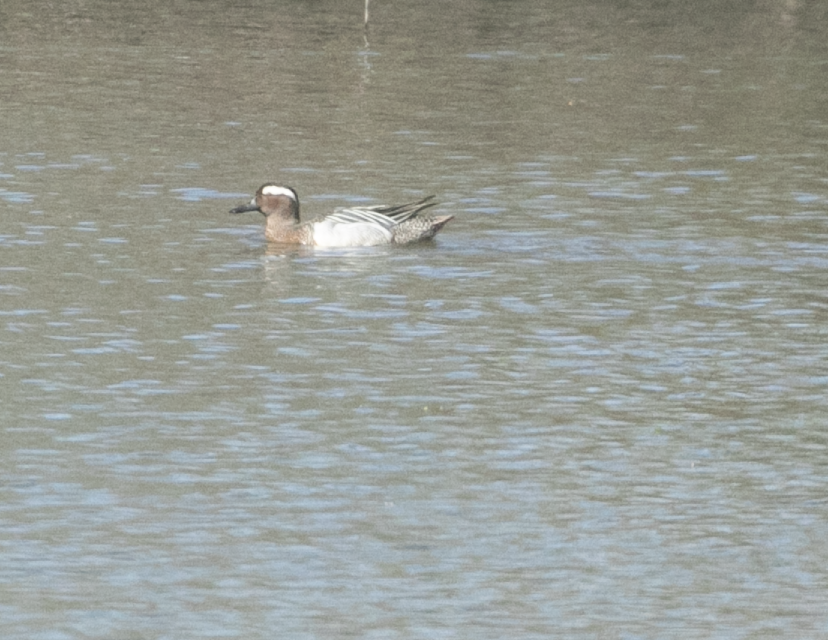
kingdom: Animalia
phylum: Chordata
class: Aves
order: Anseriformes
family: Anatidae
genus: Spatula
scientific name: Spatula querquedula
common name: Garganey
